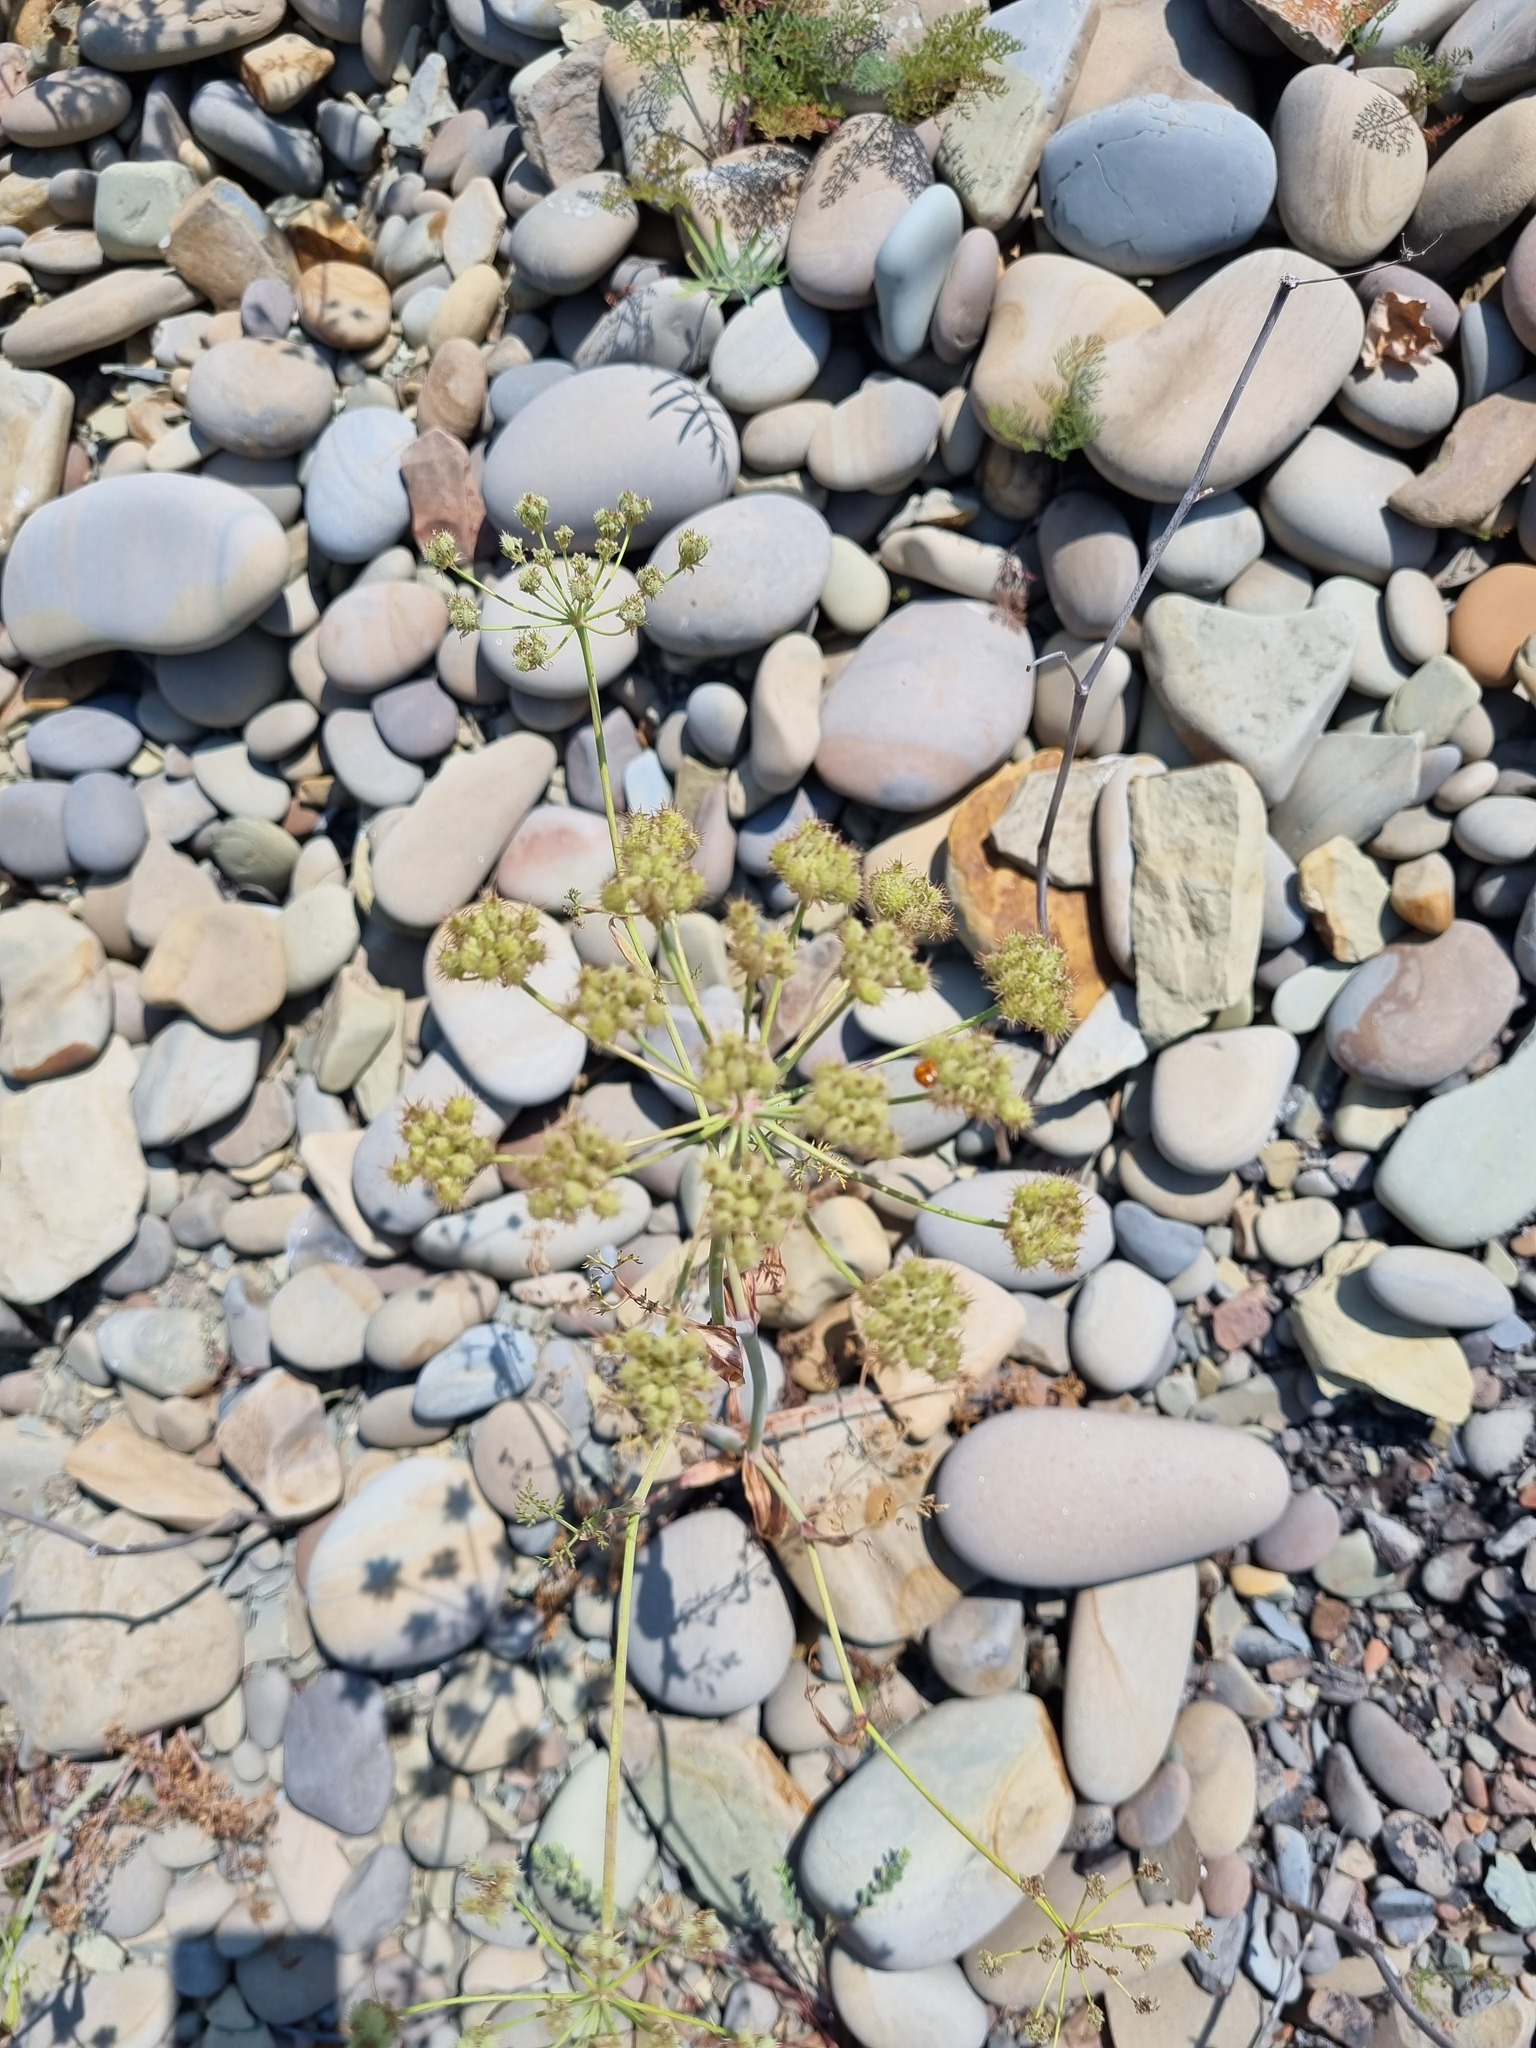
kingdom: Plantae
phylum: Tracheophyta
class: Magnoliopsida
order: Apiales
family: Apiaceae
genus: Astrodaucus
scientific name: Astrodaucus littoralis
